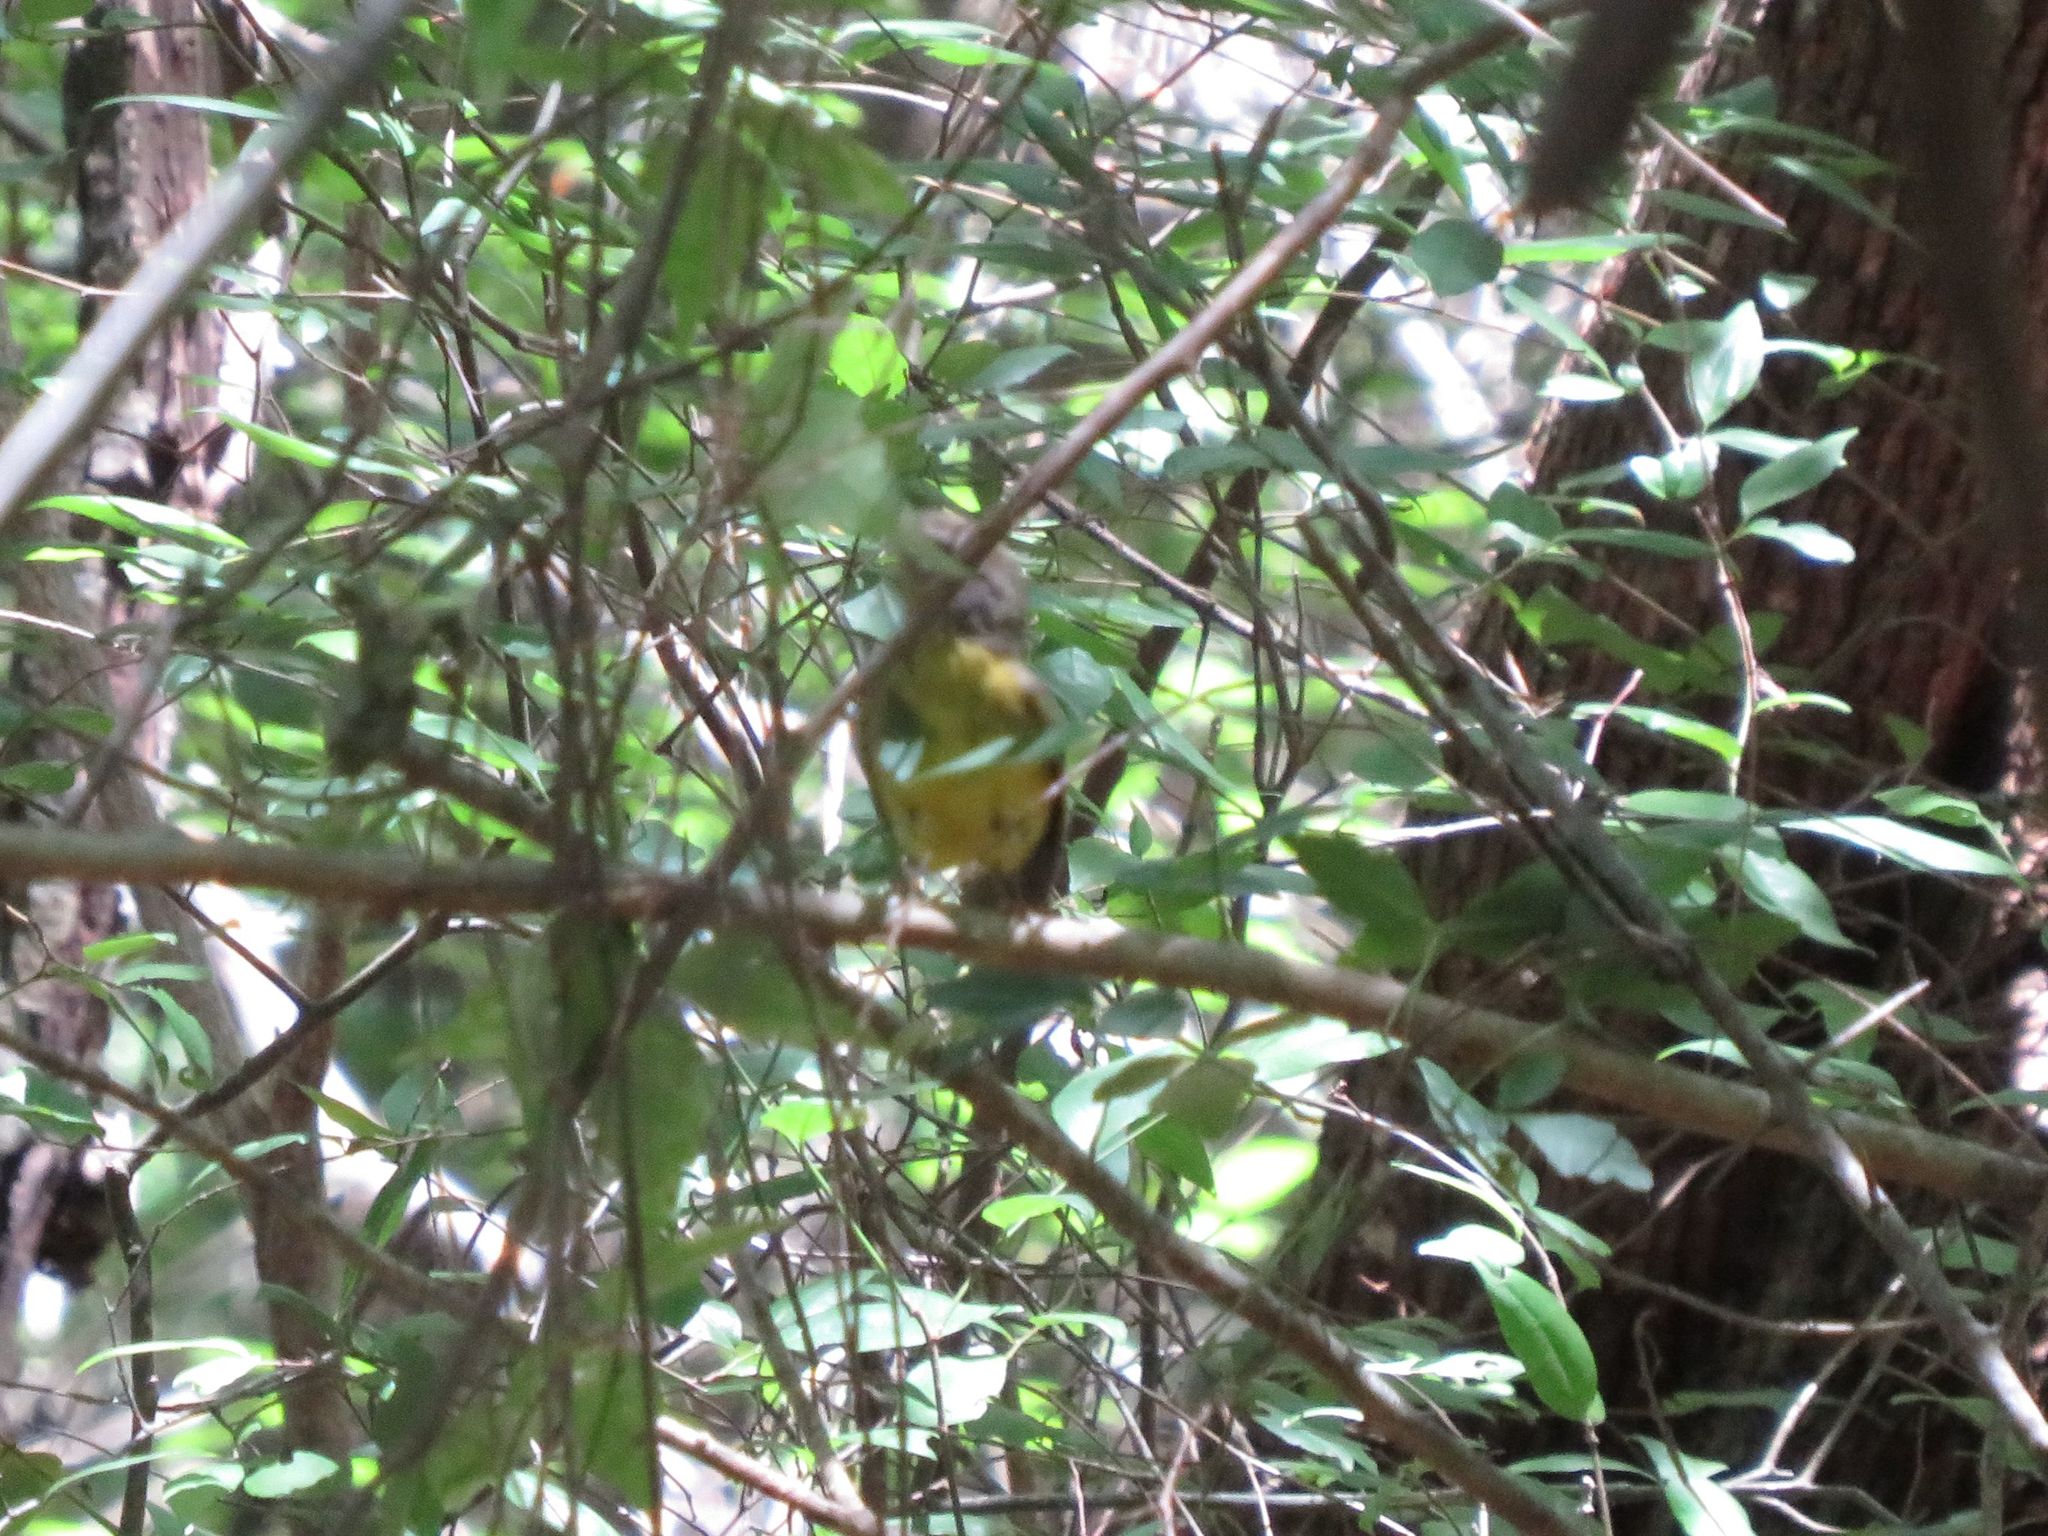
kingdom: Animalia
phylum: Chordata
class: Aves
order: Passeriformes
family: Parulidae
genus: Basileuterus
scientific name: Basileuterus culicivorus
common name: Golden-crowned warbler
